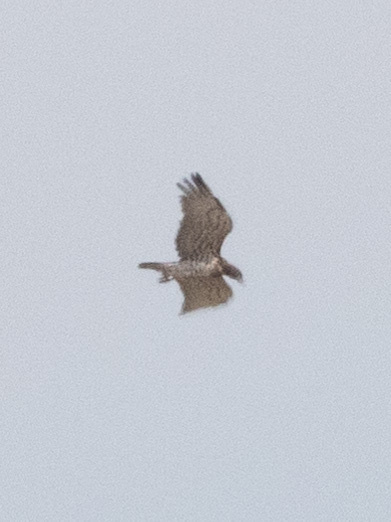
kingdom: Animalia
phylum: Chordata
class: Aves
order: Accipitriformes
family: Accipitridae
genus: Circaetus
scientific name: Circaetus gallicus
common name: Short-toed snake eagle
